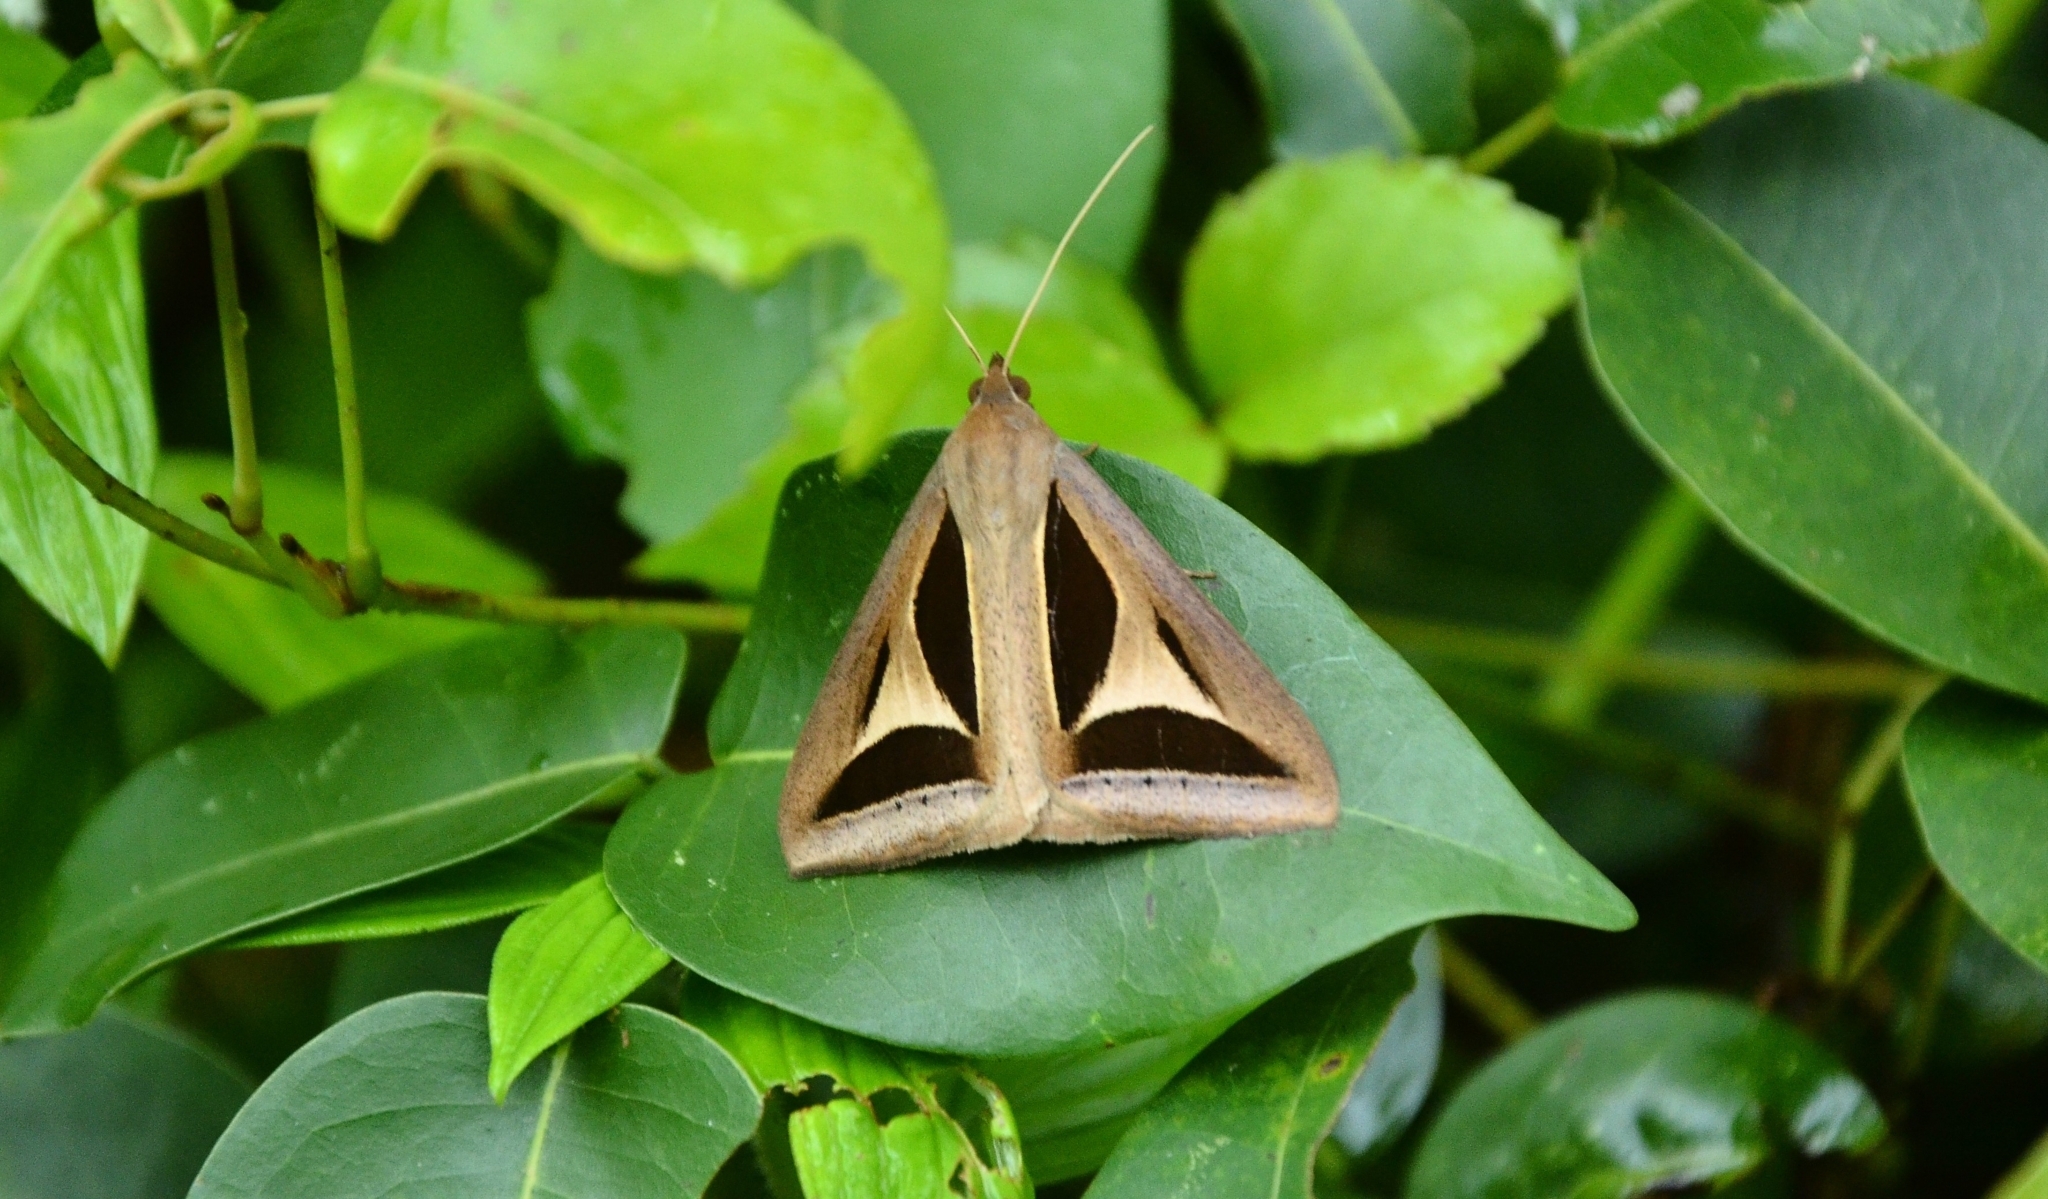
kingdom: Animalia
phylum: Arthropoda
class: Insecta
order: Lepidoptera
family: Erebidae
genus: Trigonodes
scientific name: Trigonodes cephise
